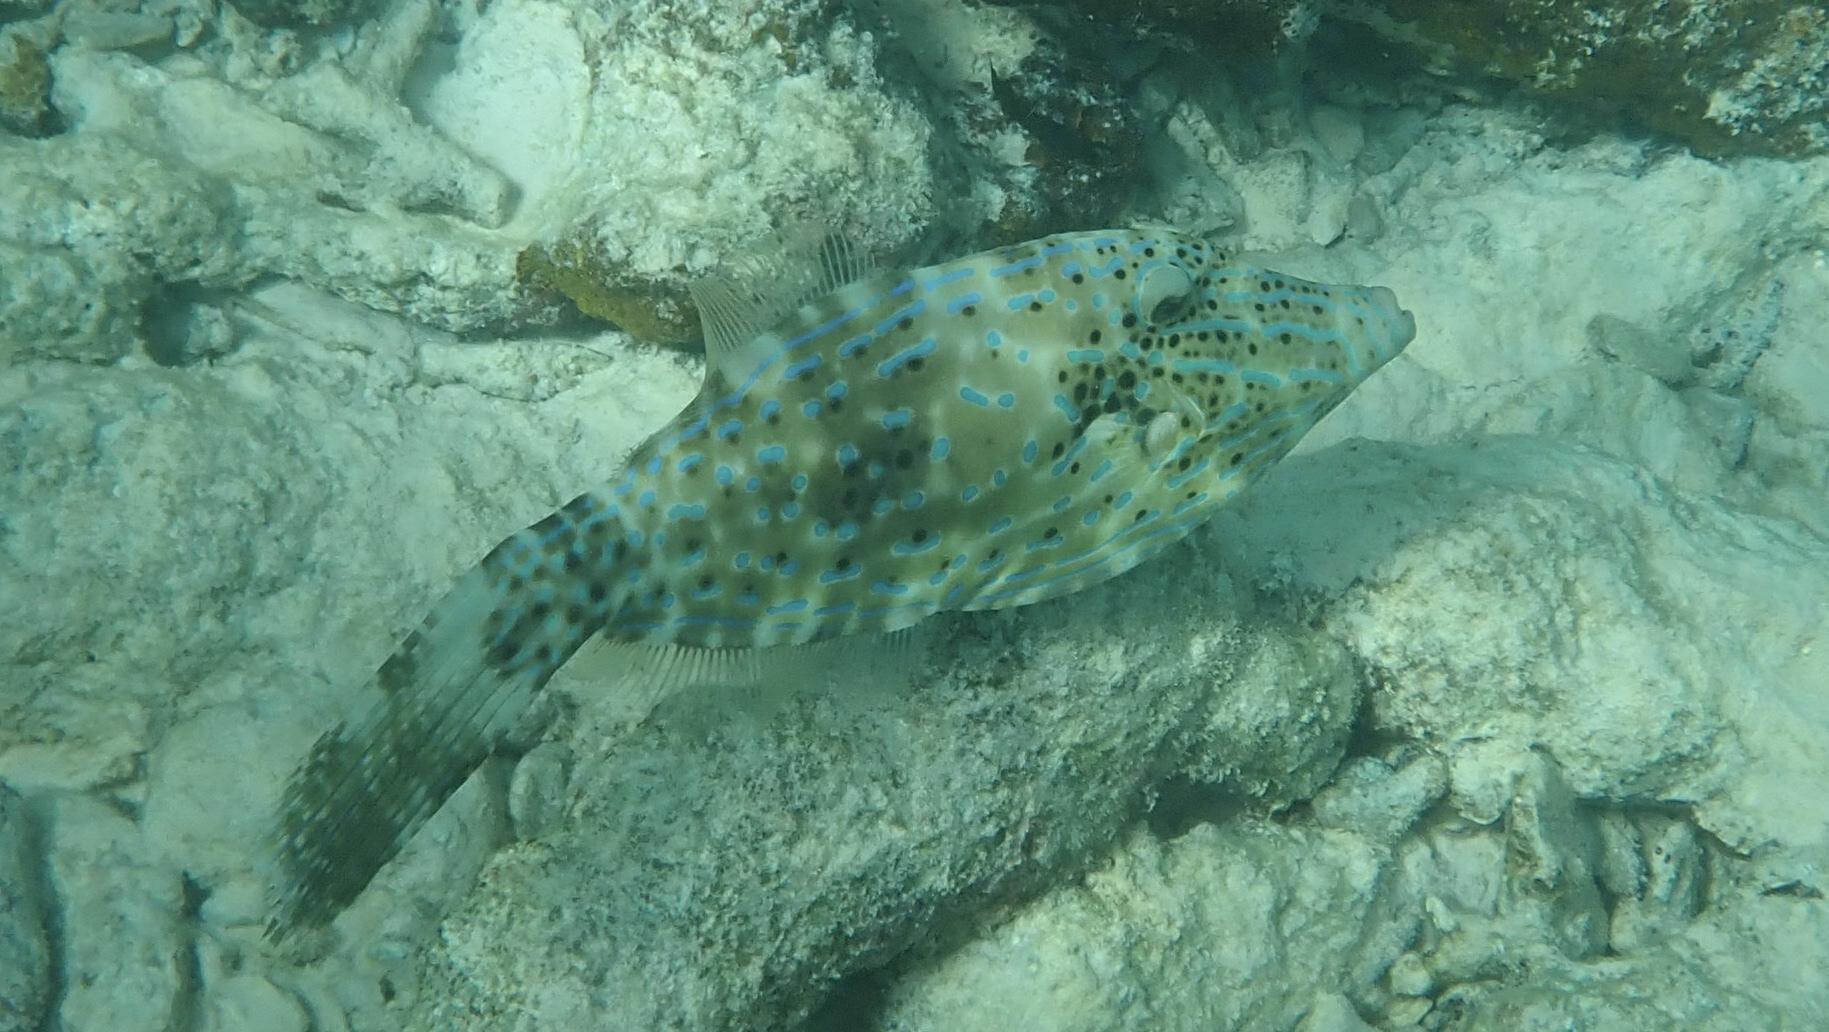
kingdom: Animalia
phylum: Chordata
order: Tetraodontiformes
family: Monacanthidae
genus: Aluterus
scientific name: Aluterus scriptus
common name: Scribbled leatherjacket filefish
